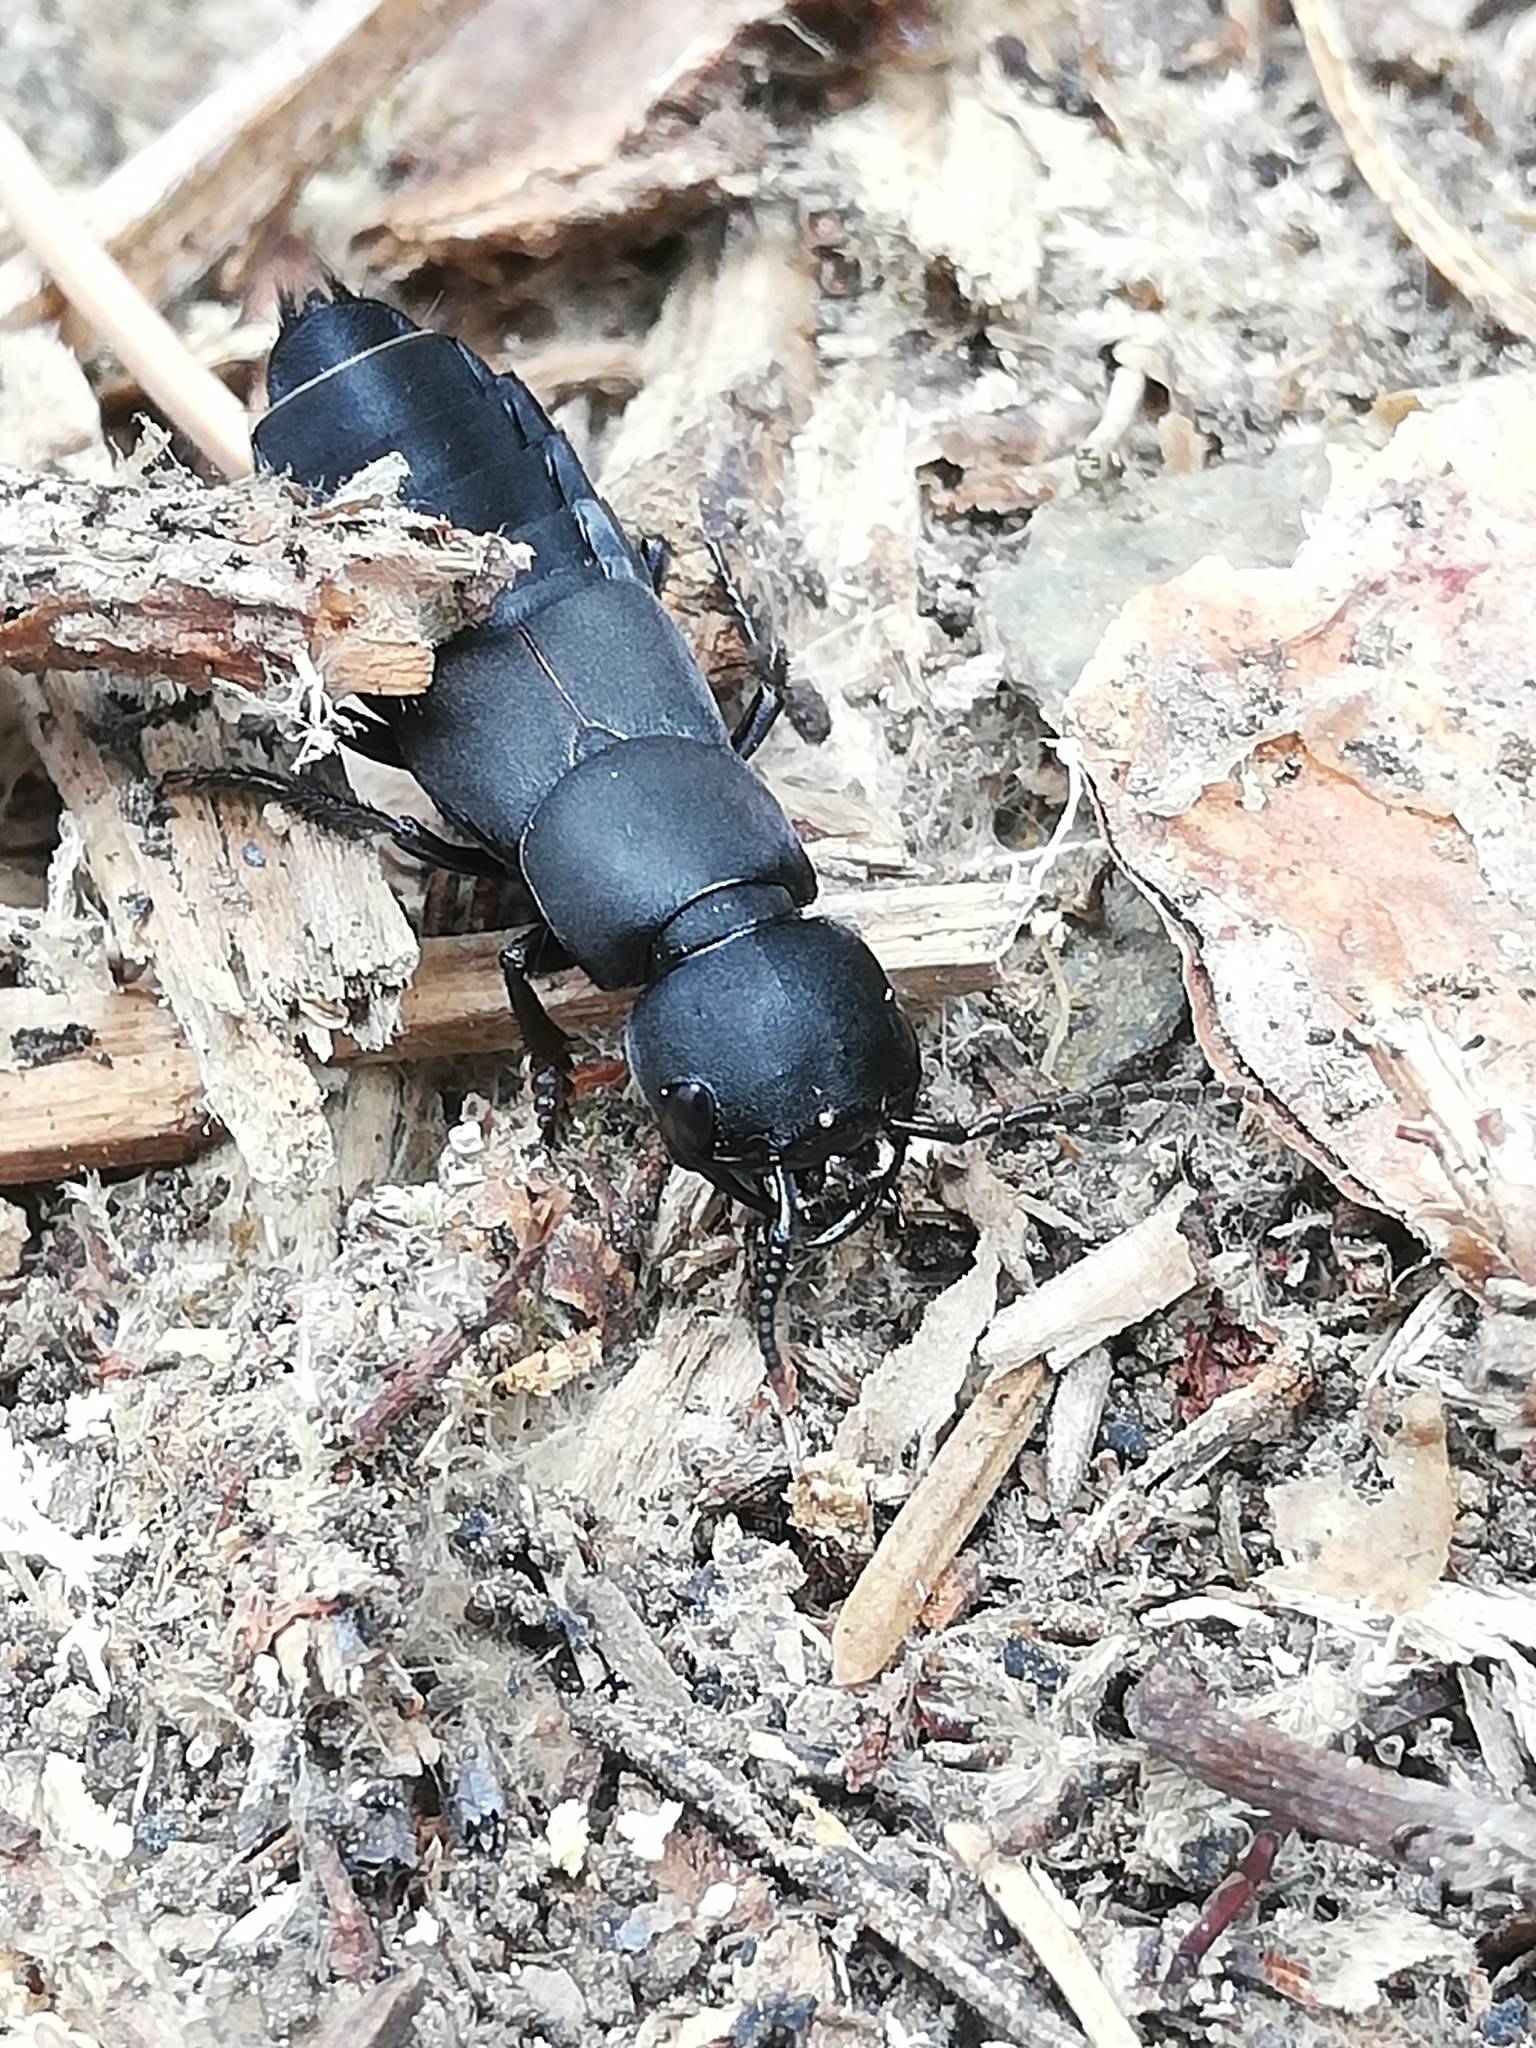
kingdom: Animalia
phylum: Arthropoda
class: Insecta
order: Coleoptera
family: Staphylinidae
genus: Ocypus
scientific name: Ocypus olens
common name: Devil's coach-horse
